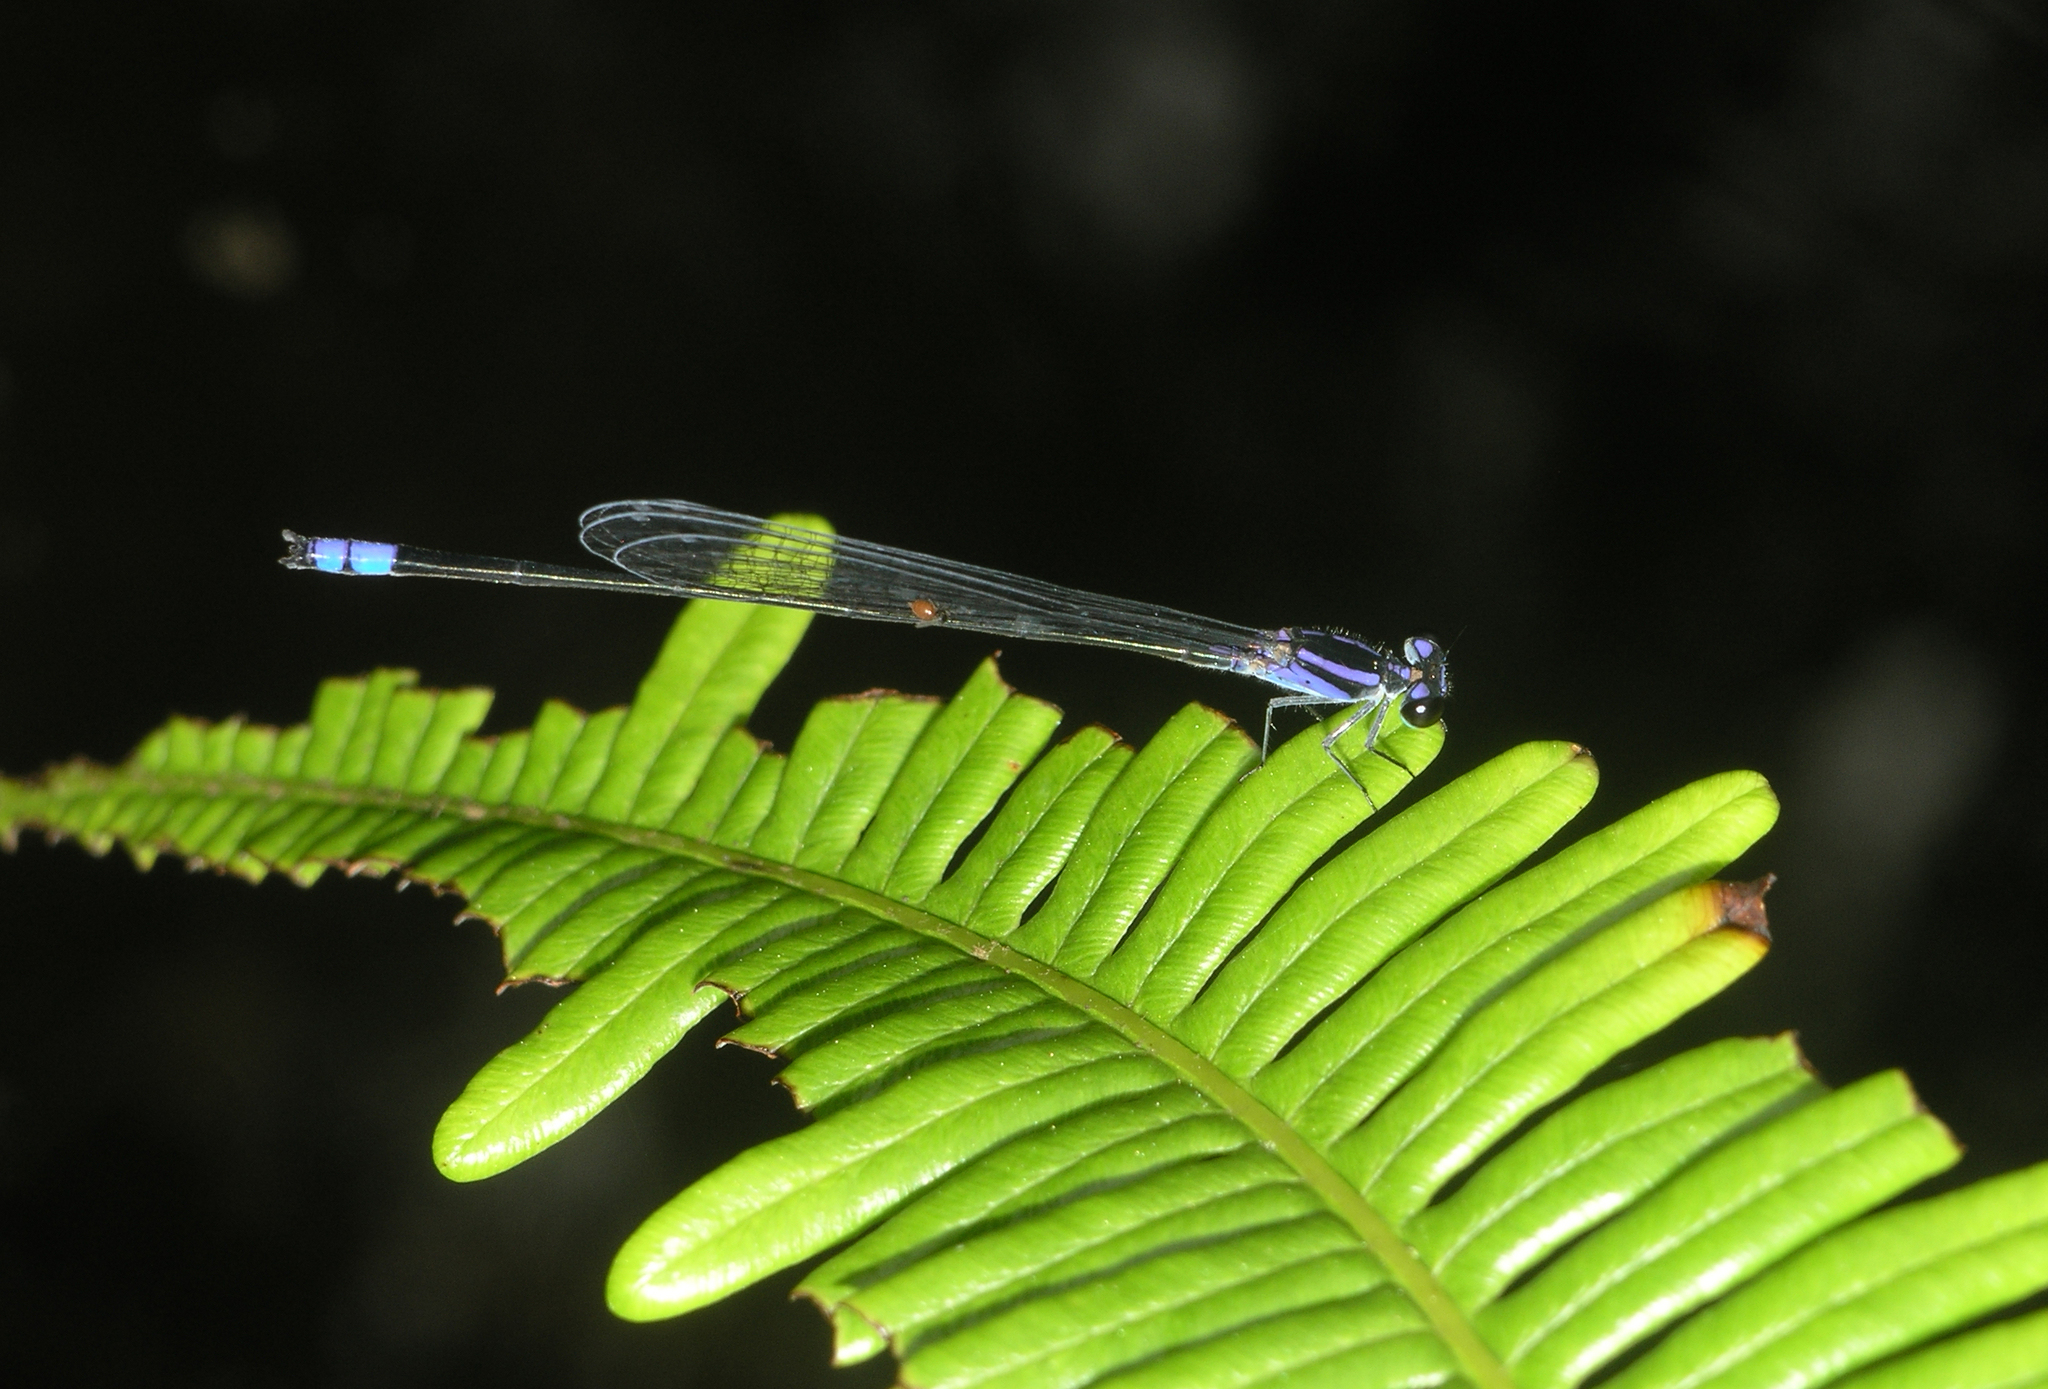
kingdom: Animalia
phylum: Arthropoda
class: Insecta
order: Odonata
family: Coenagrionidae
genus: Archibasis
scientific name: Archibasis viola
